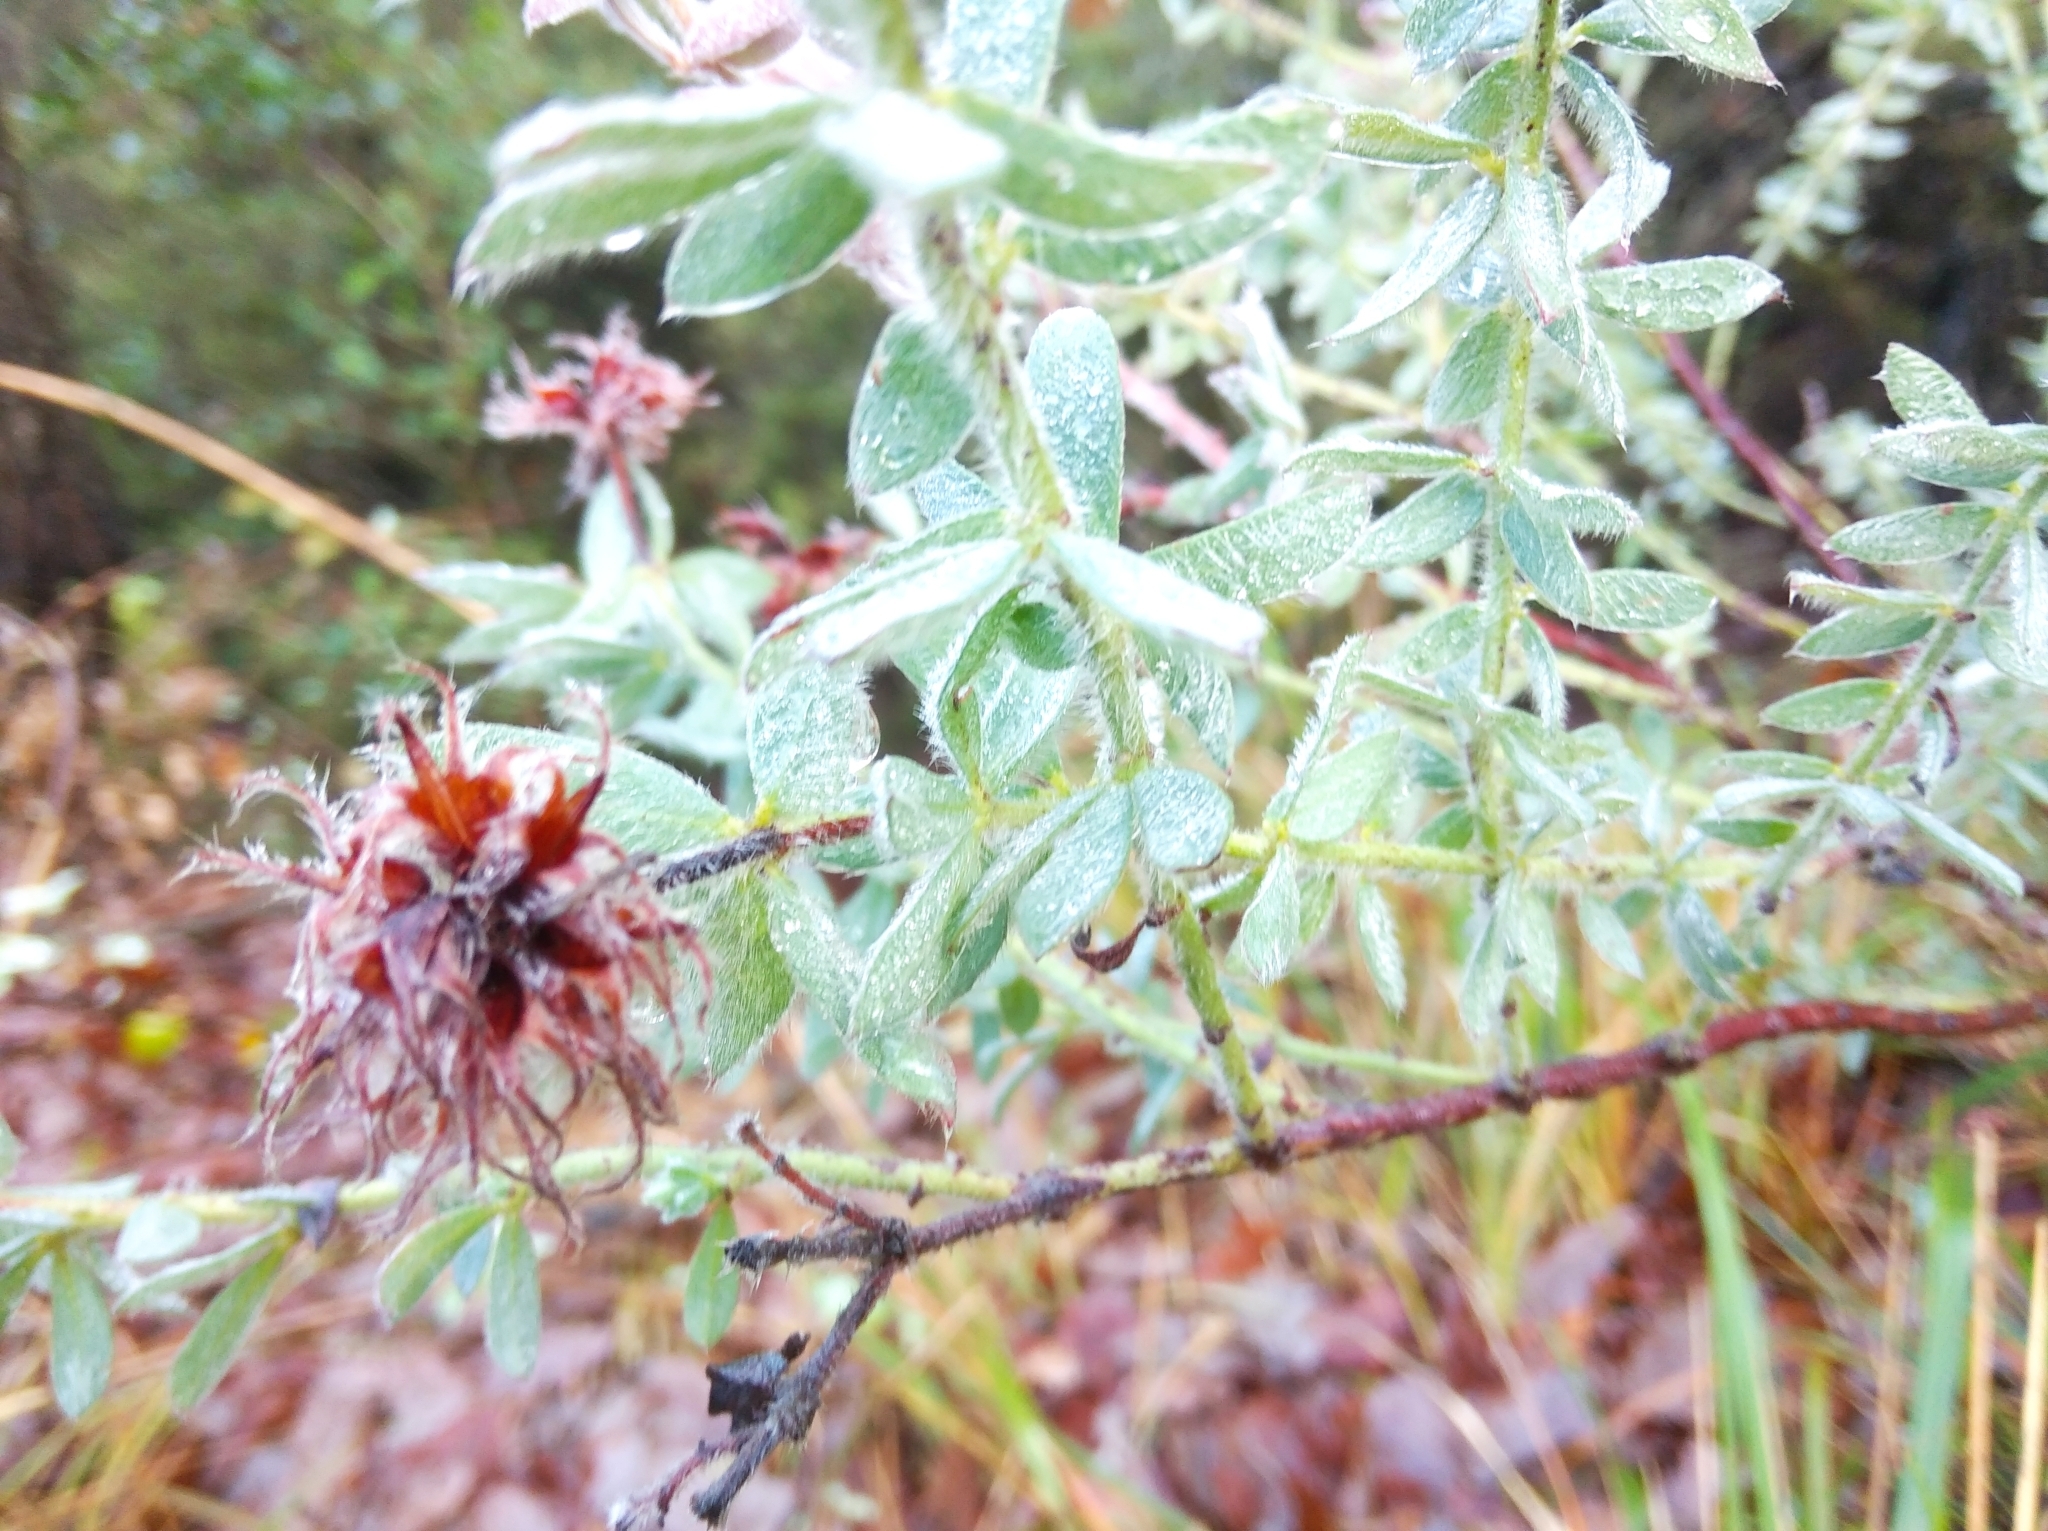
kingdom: Plantae
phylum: Tracheophyta
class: Magnoliopsida
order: Fabales
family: Fabaceae
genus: Lotus
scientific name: Lotus hirsutus
